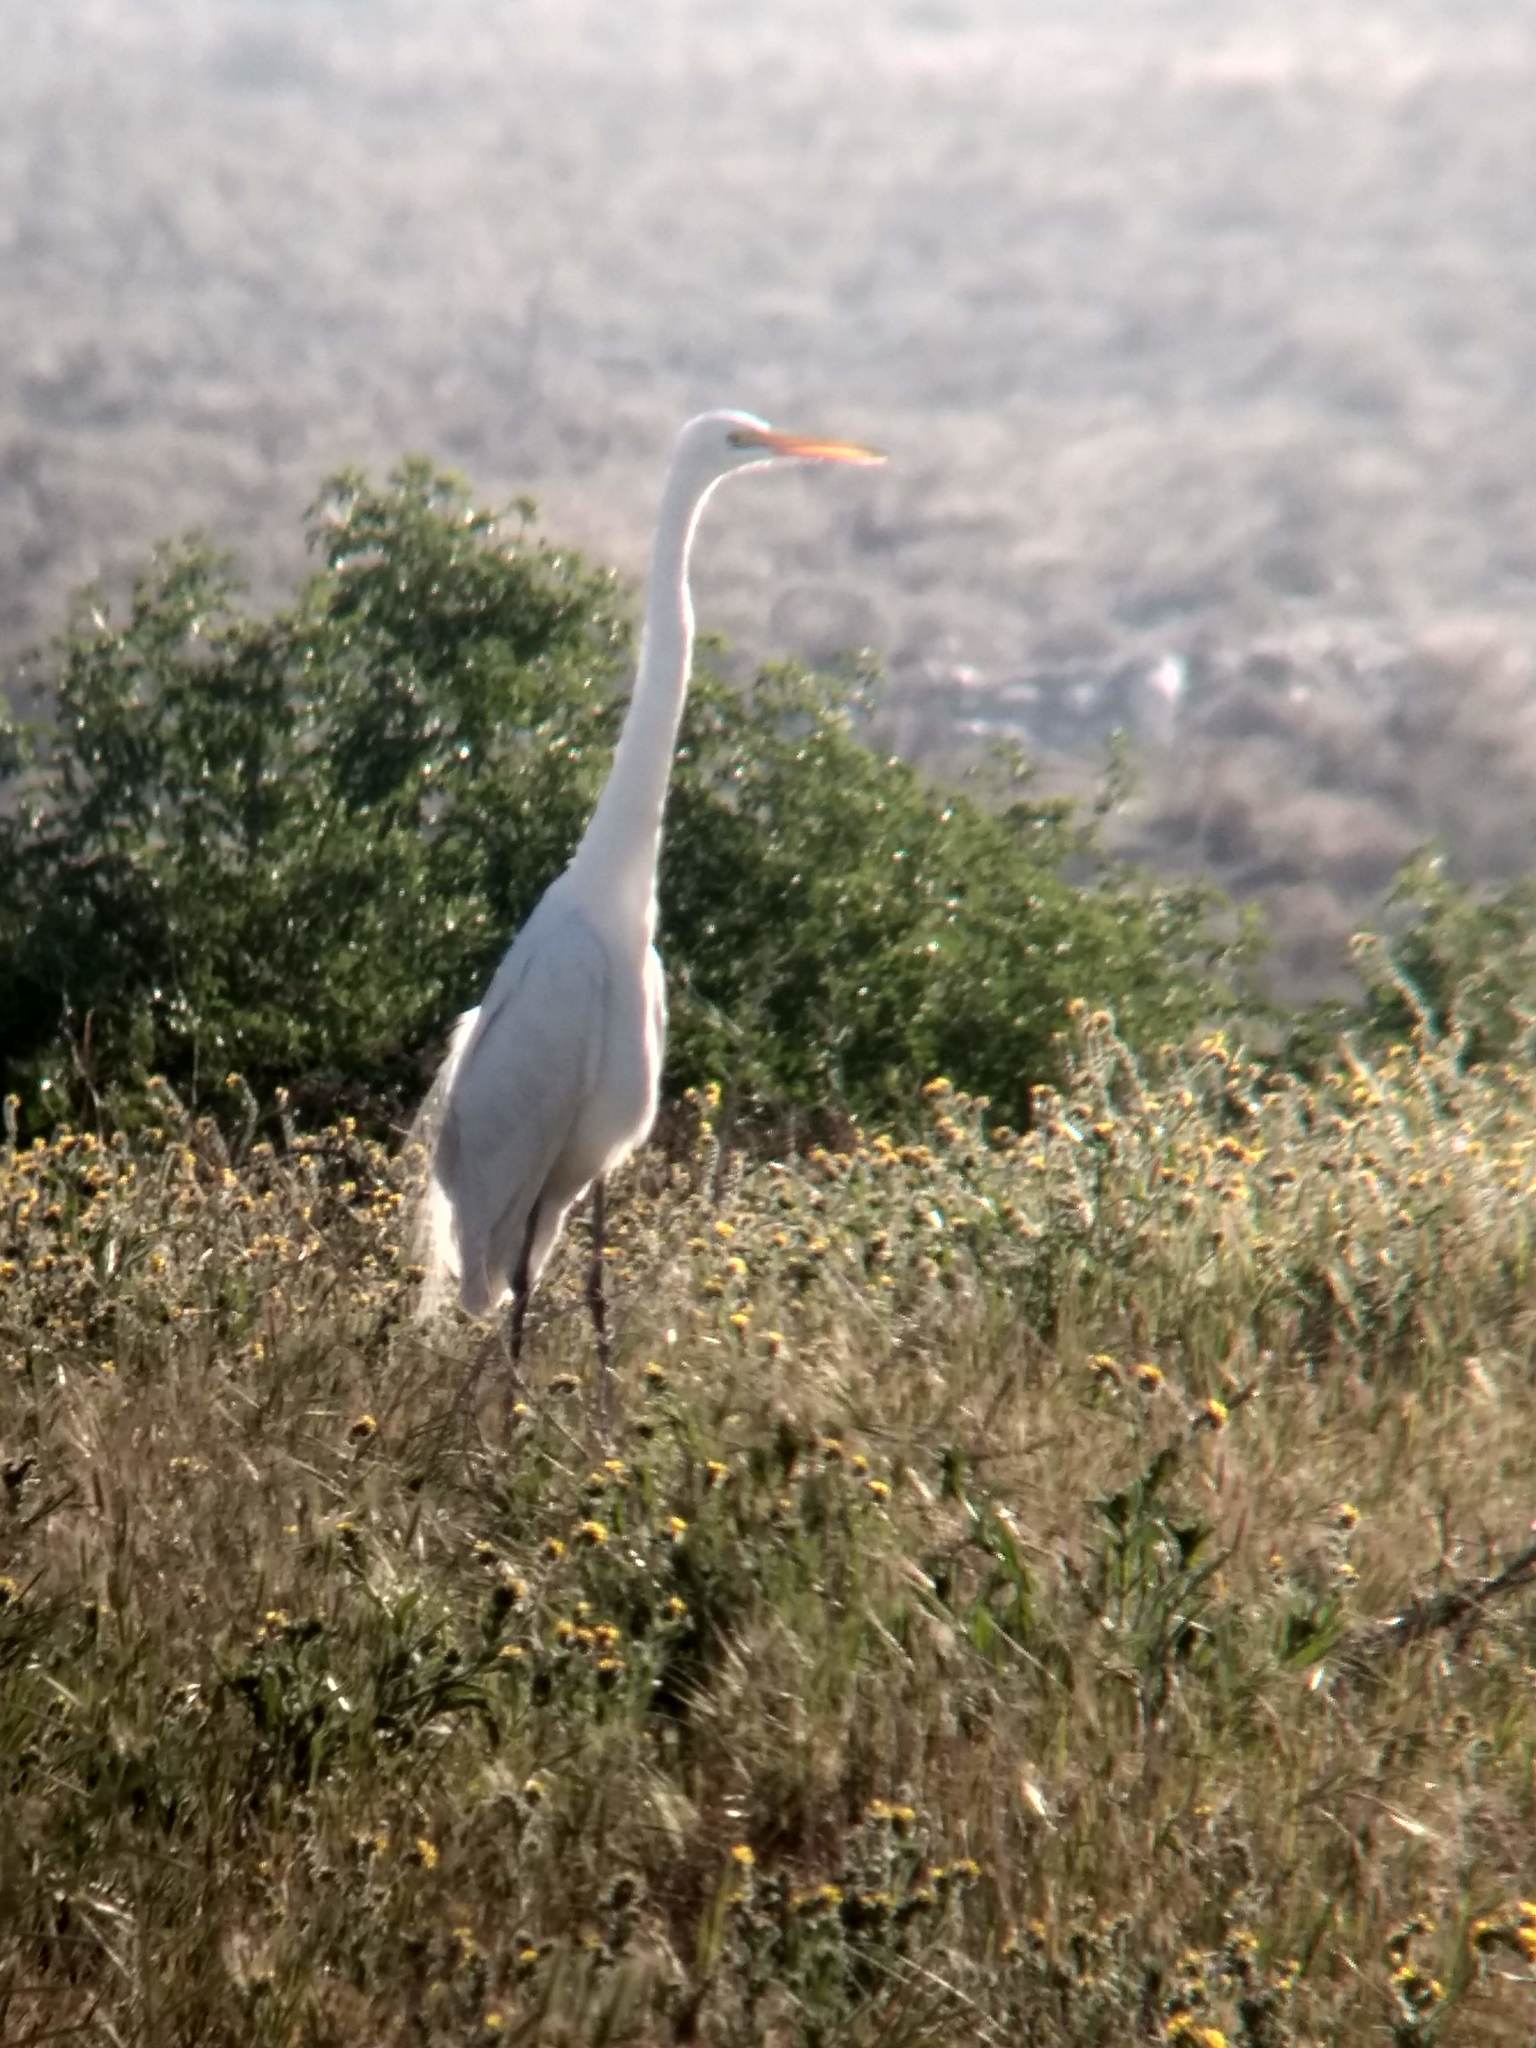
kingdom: Animalia
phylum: Chordata
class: Aves
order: Pelecaniformes
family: Ardeidae
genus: Ardea
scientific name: Ardea alba
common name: Great egret
